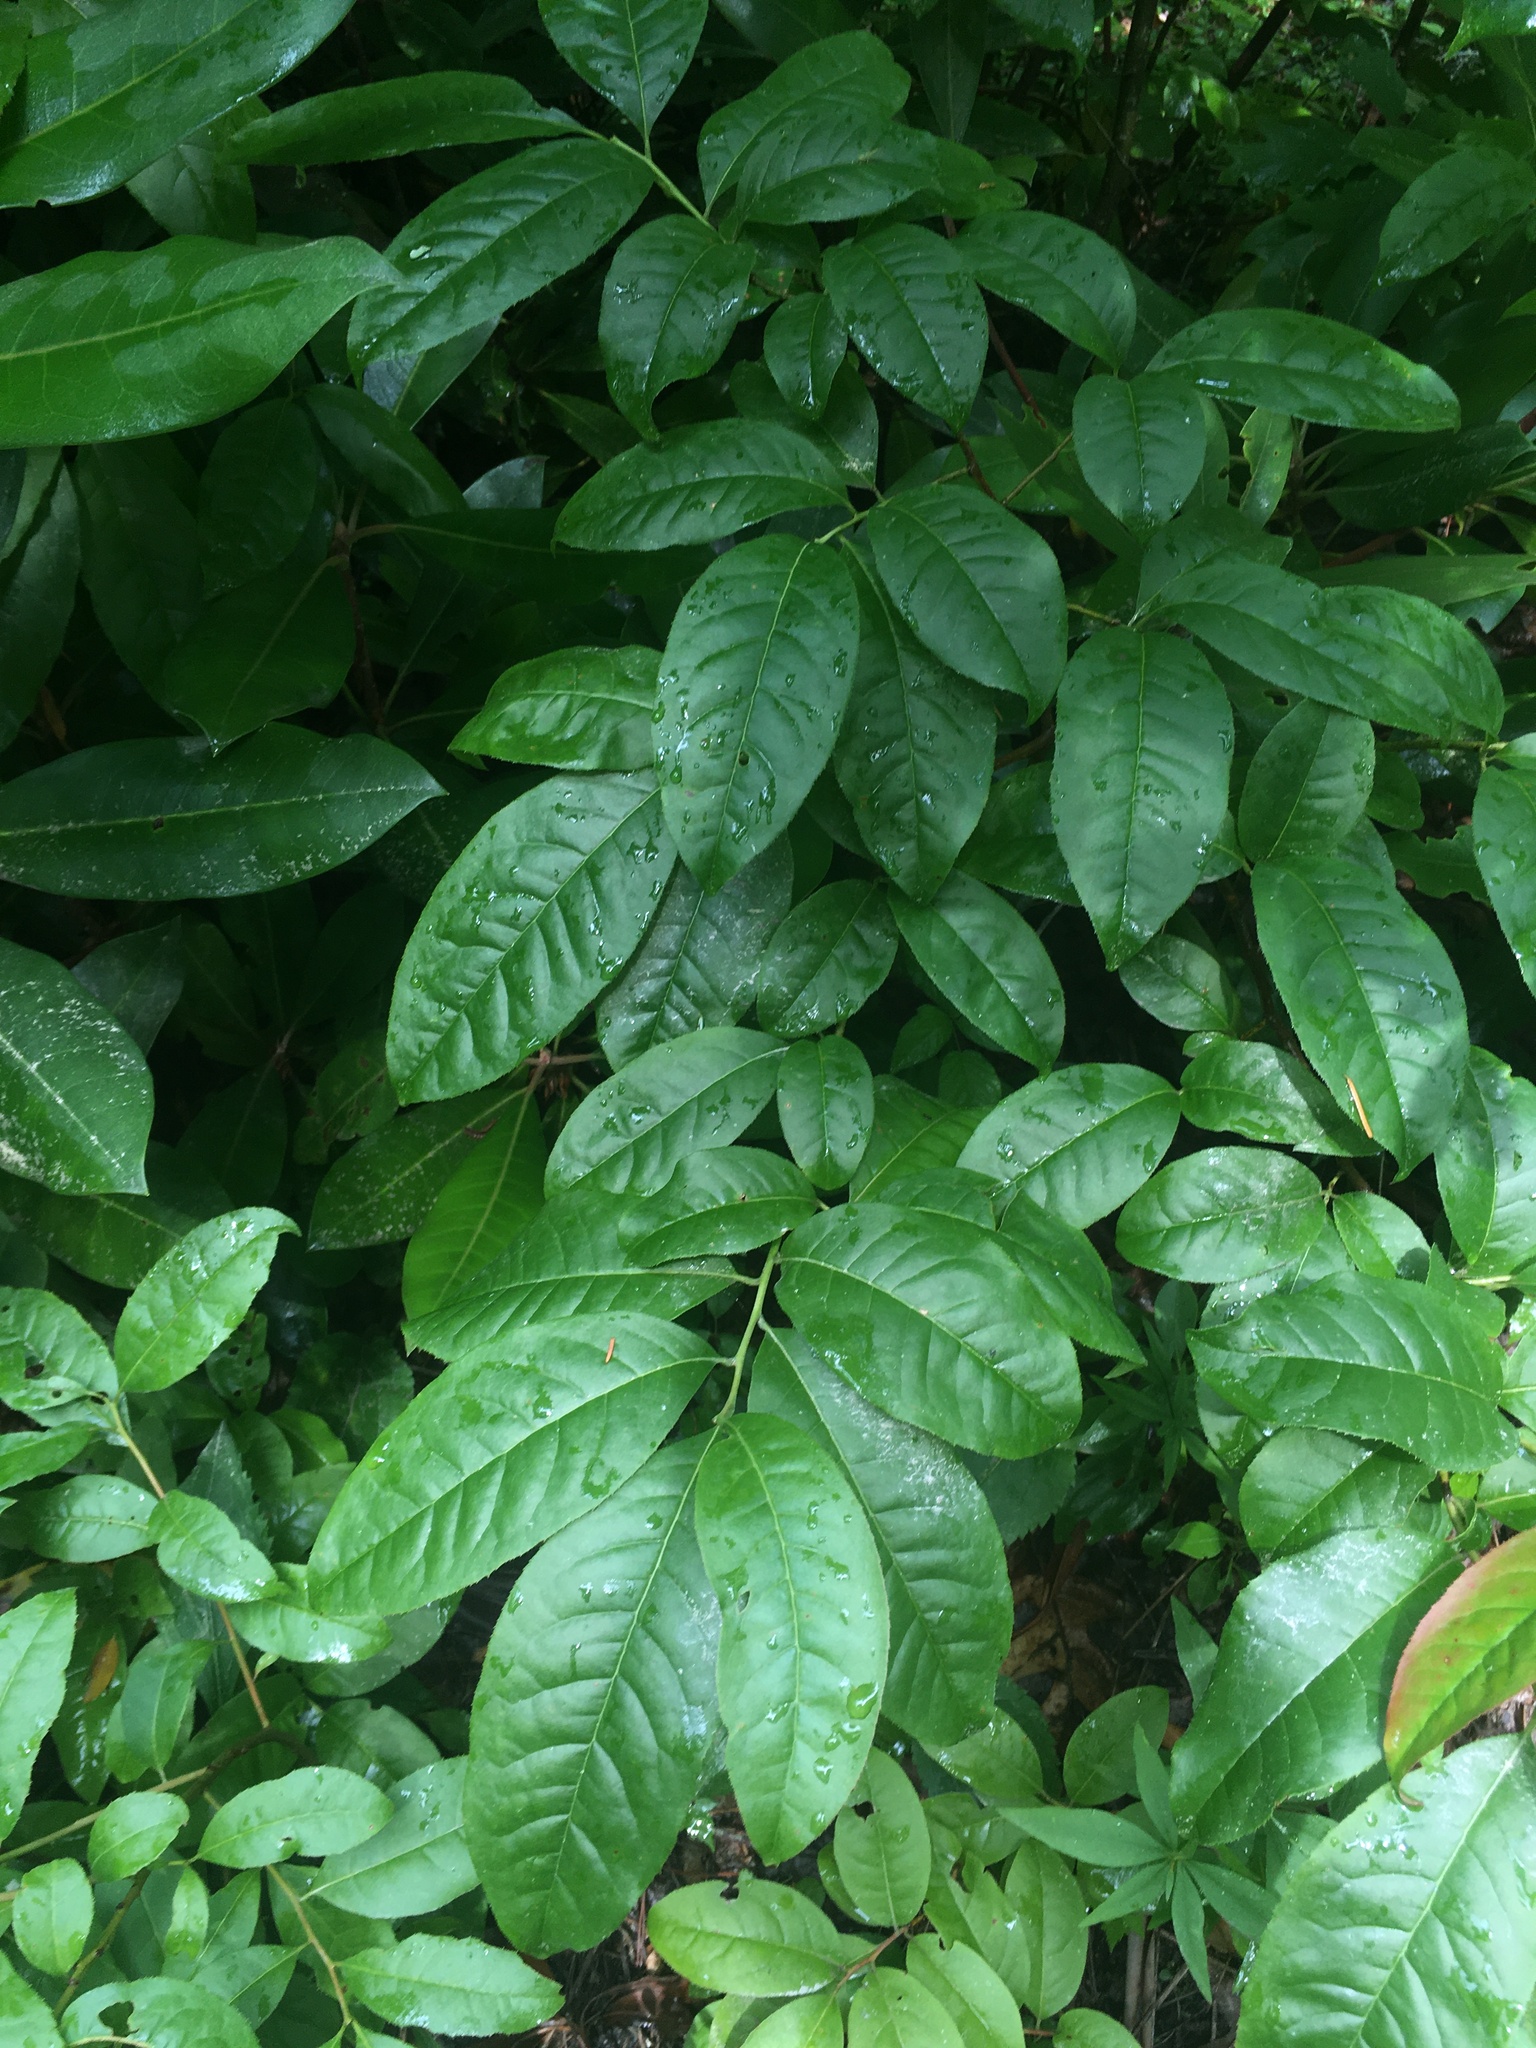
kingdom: Plantae
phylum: Tracheophyta
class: Magnoliopsida
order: Ericales
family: Ericaceae
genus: Oxydendrum
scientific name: Oxydendrum arboreum
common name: Sourwood
